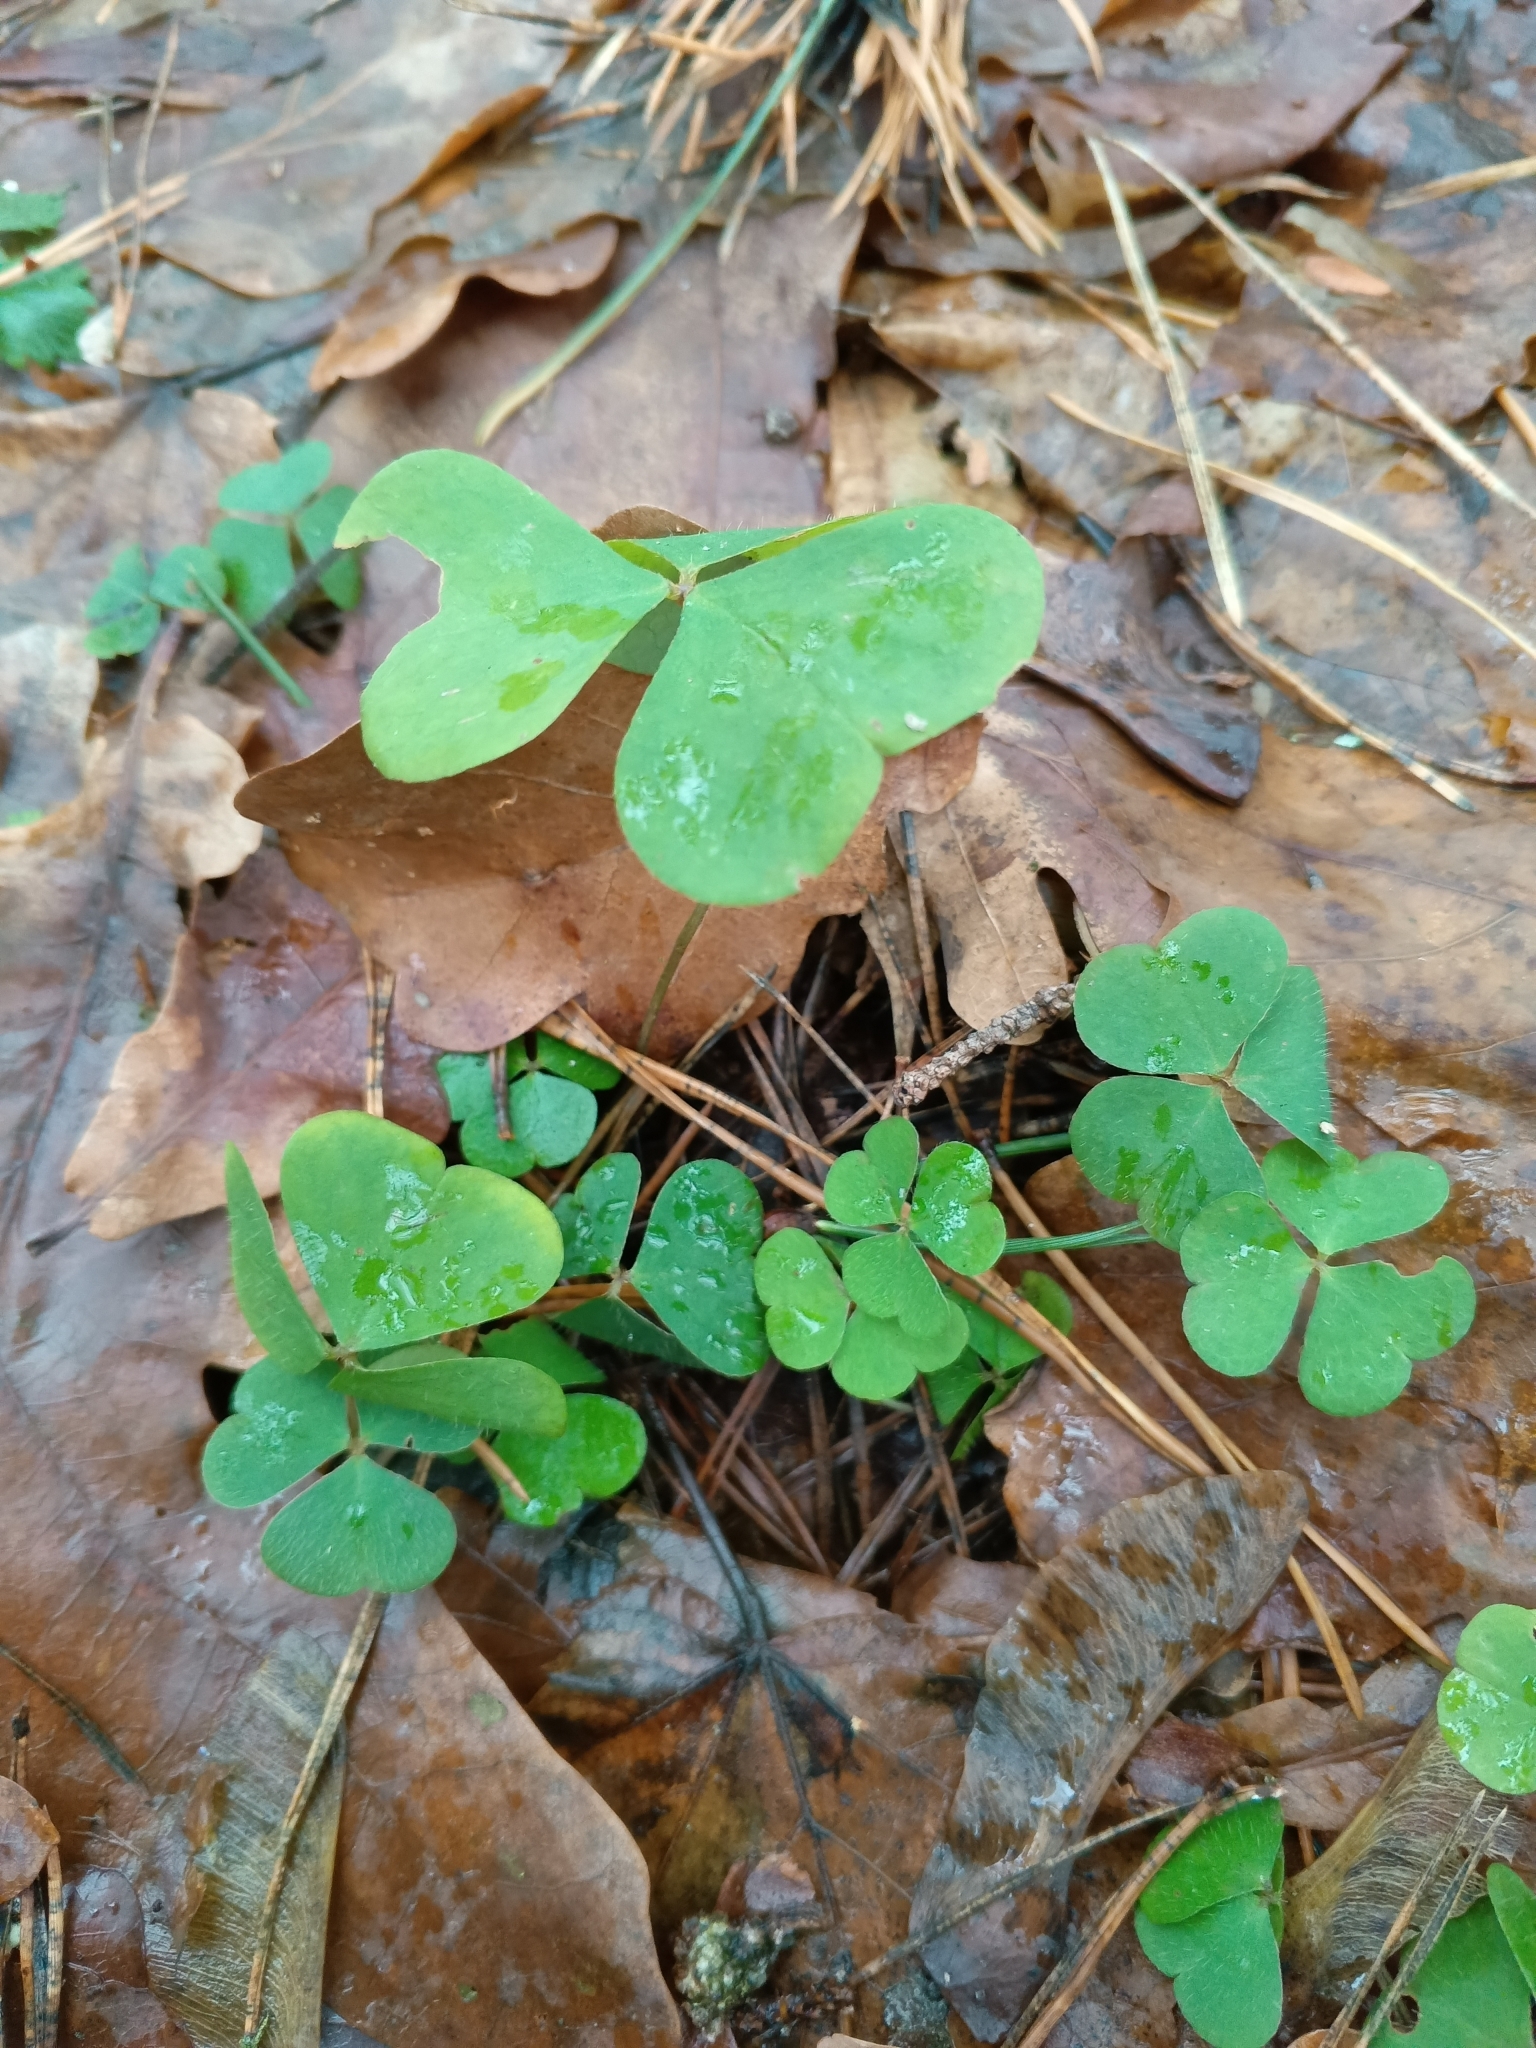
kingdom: Plantae
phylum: Tracheophyta
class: Magnoliopsida
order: Oxalidales
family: Oxalidaceae
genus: Oxalis
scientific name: Oxalis acetosella
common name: Wood-sorrel
